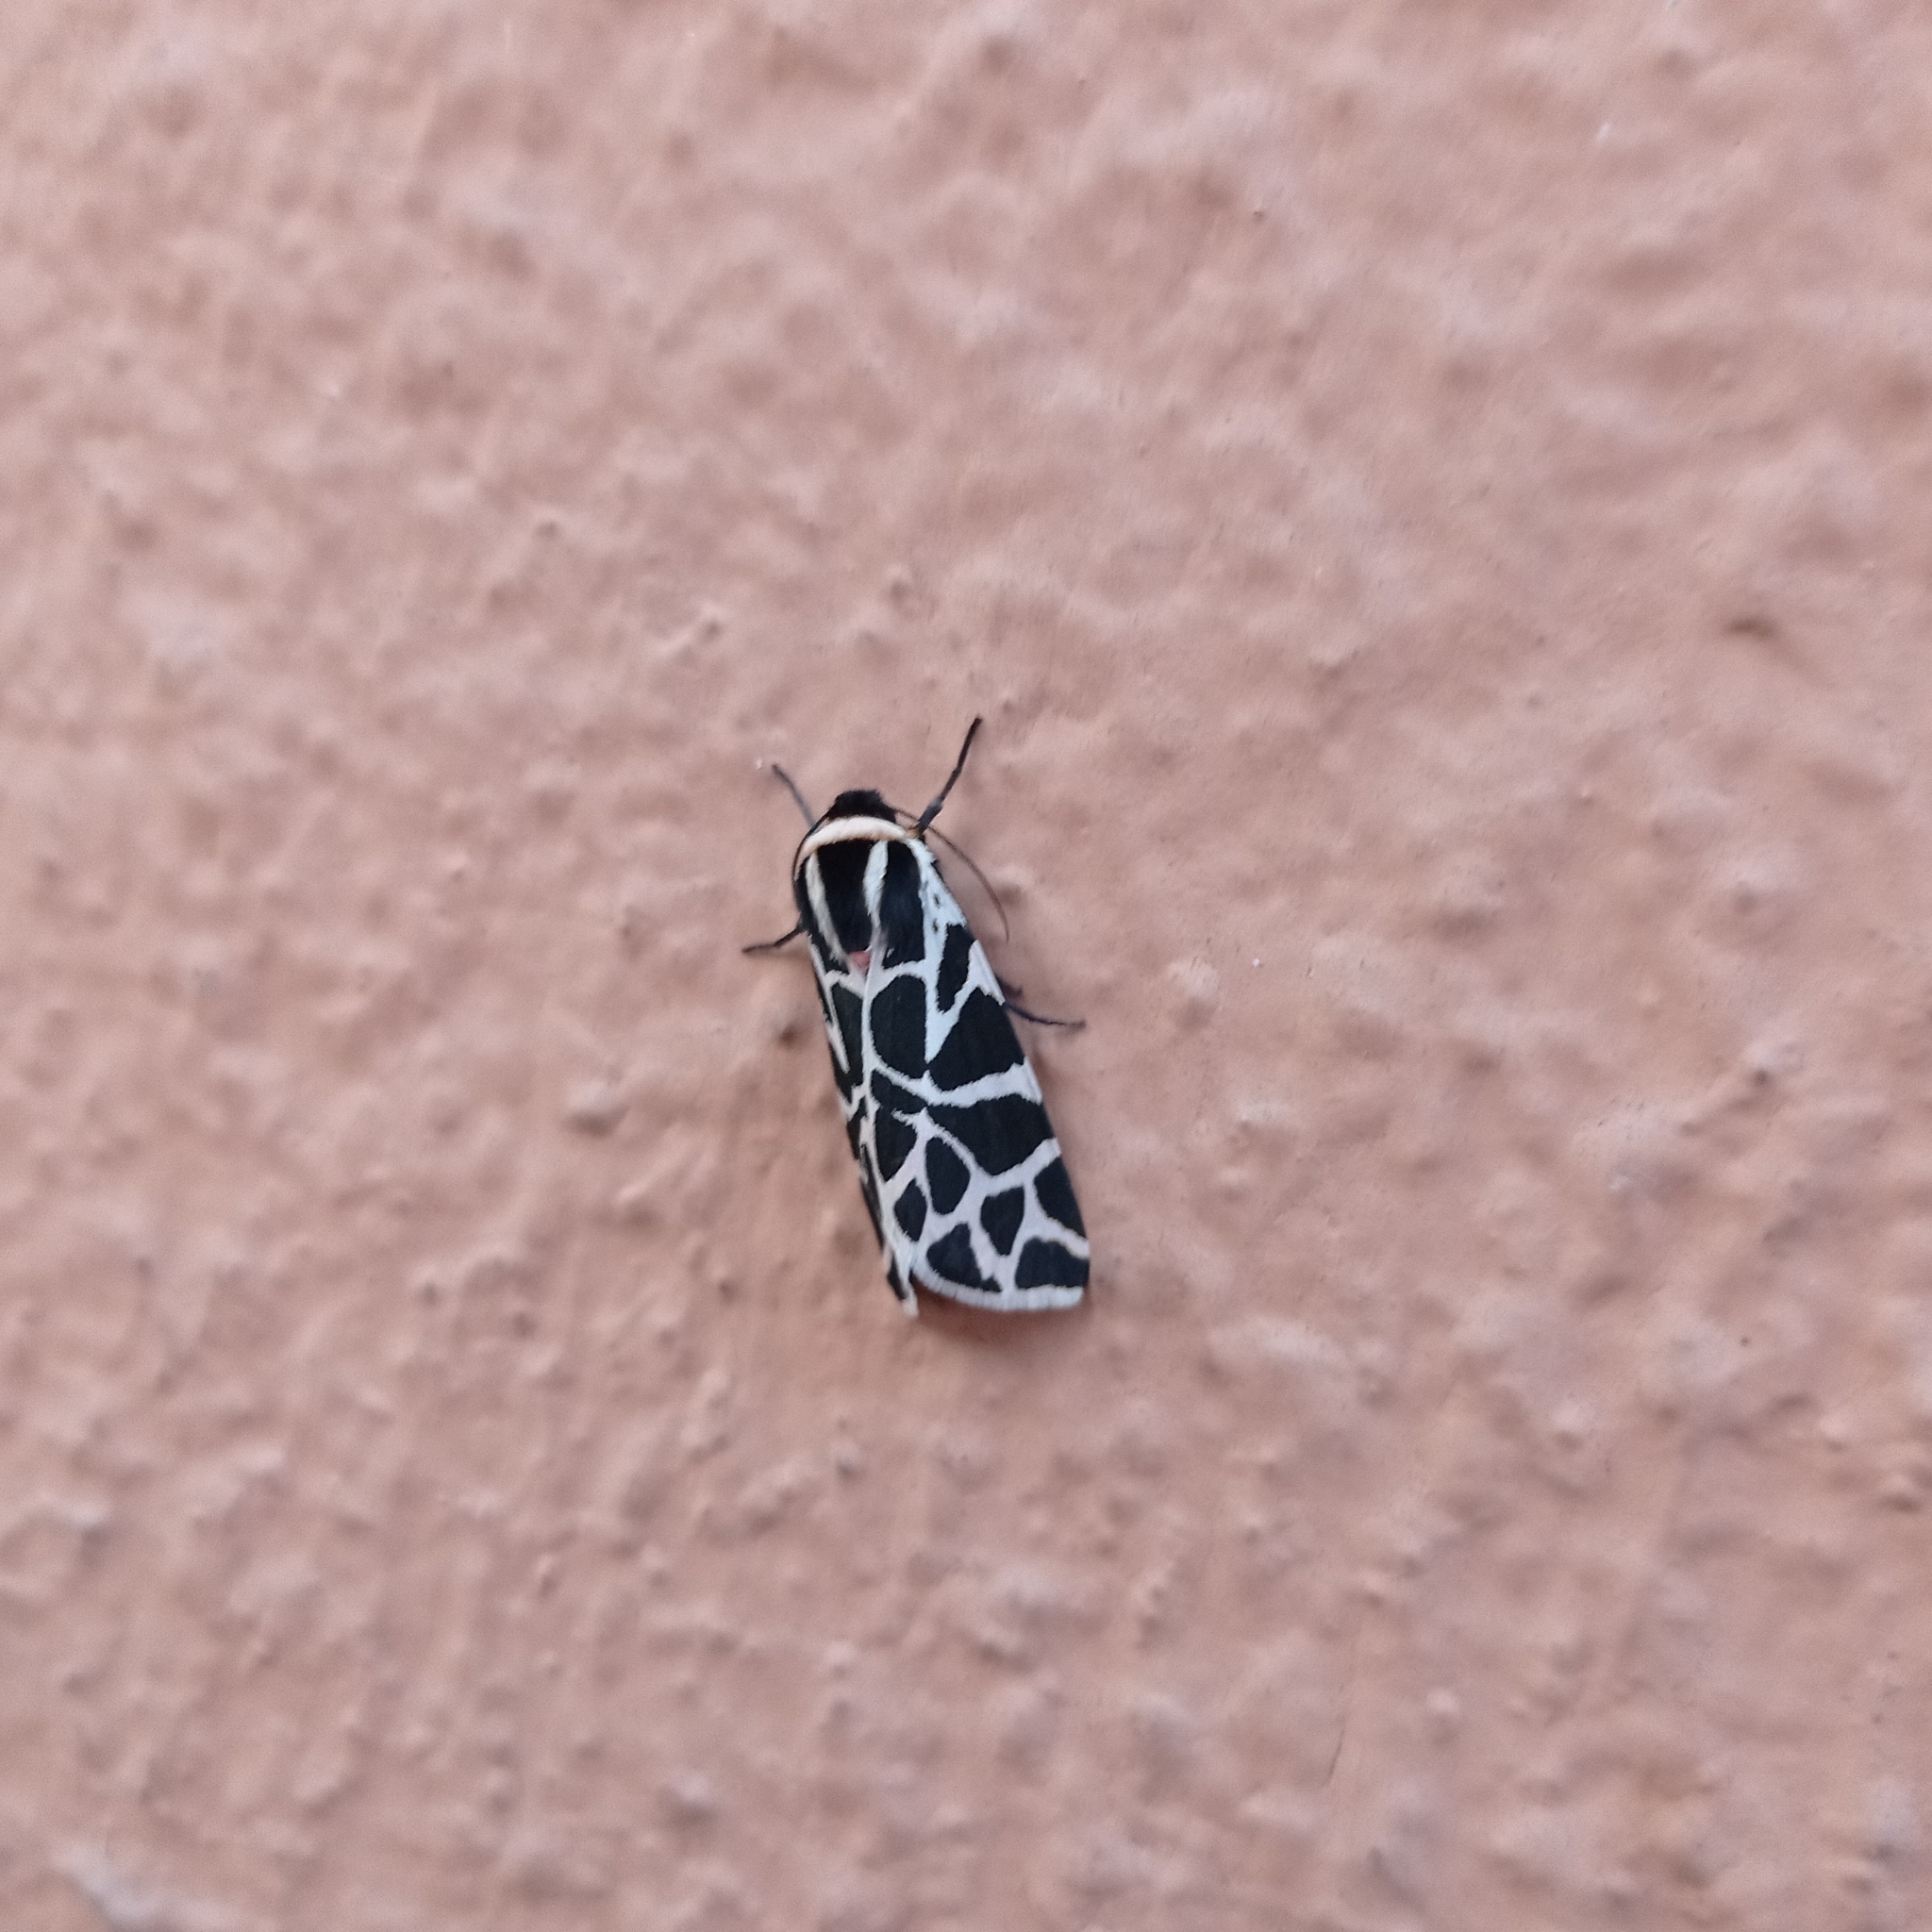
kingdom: Animalia
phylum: Arthropoda
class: Insecta
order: Lepidoptera
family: Erebidae
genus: Cymbalophora
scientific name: Cymbalophora pudica
